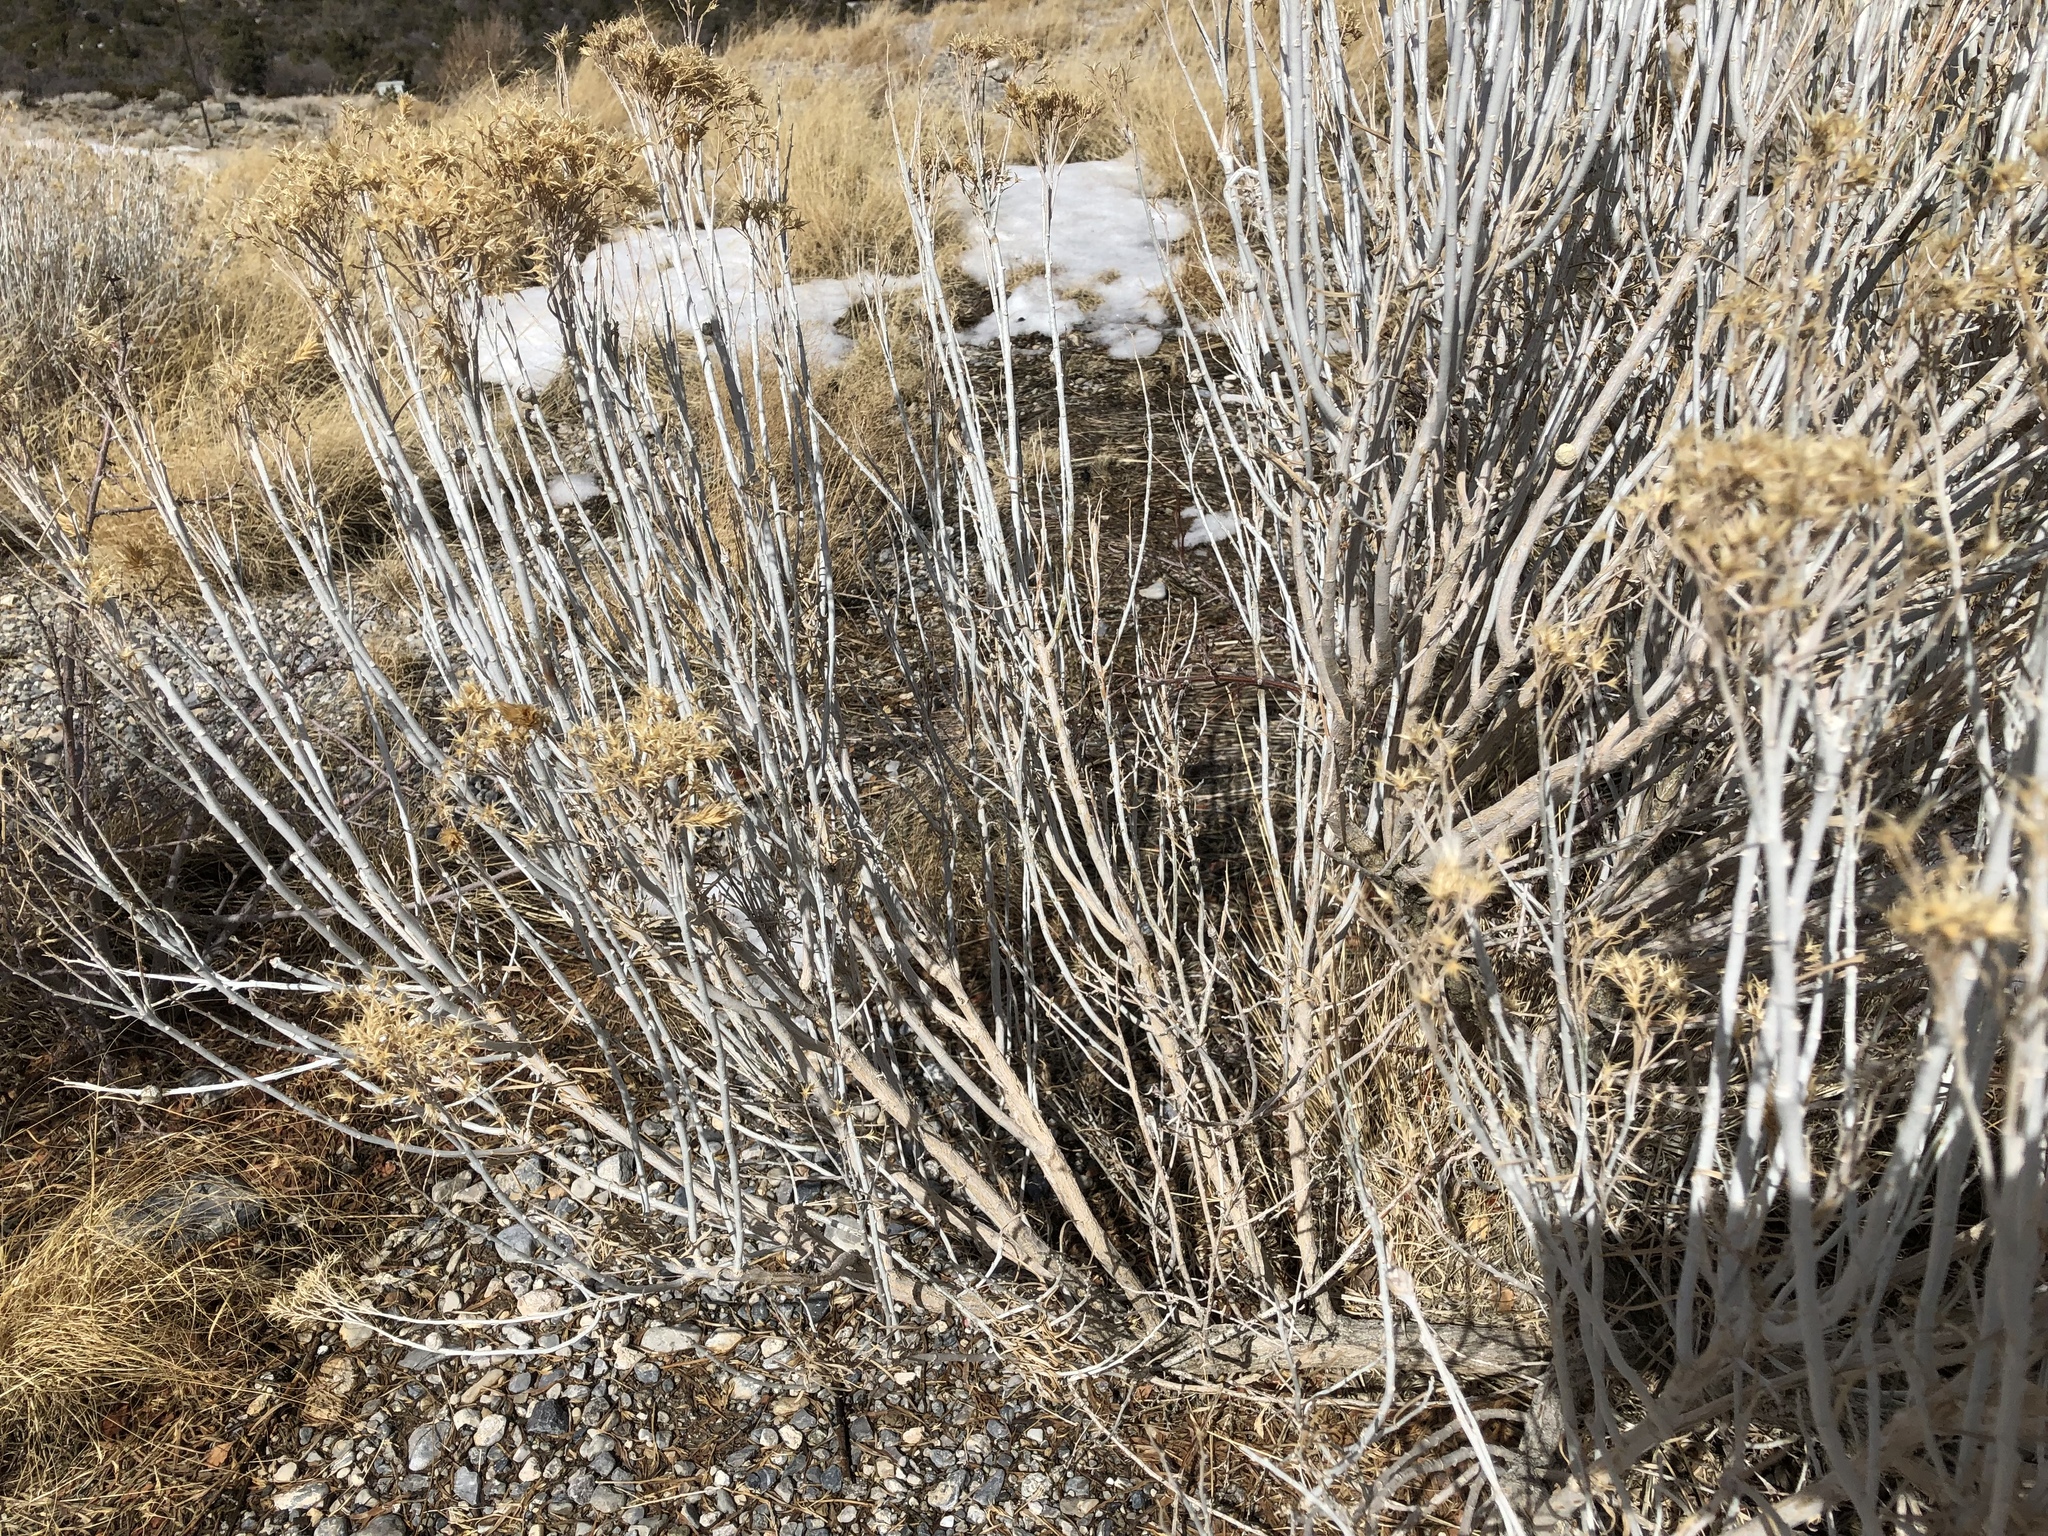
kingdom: Plantae
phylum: Tracheophyta
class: Magnoliopsida
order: Asterales
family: Asteraceae
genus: Ericameria
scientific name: Ericameria nauseosa
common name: Rubber rabbitbrush
